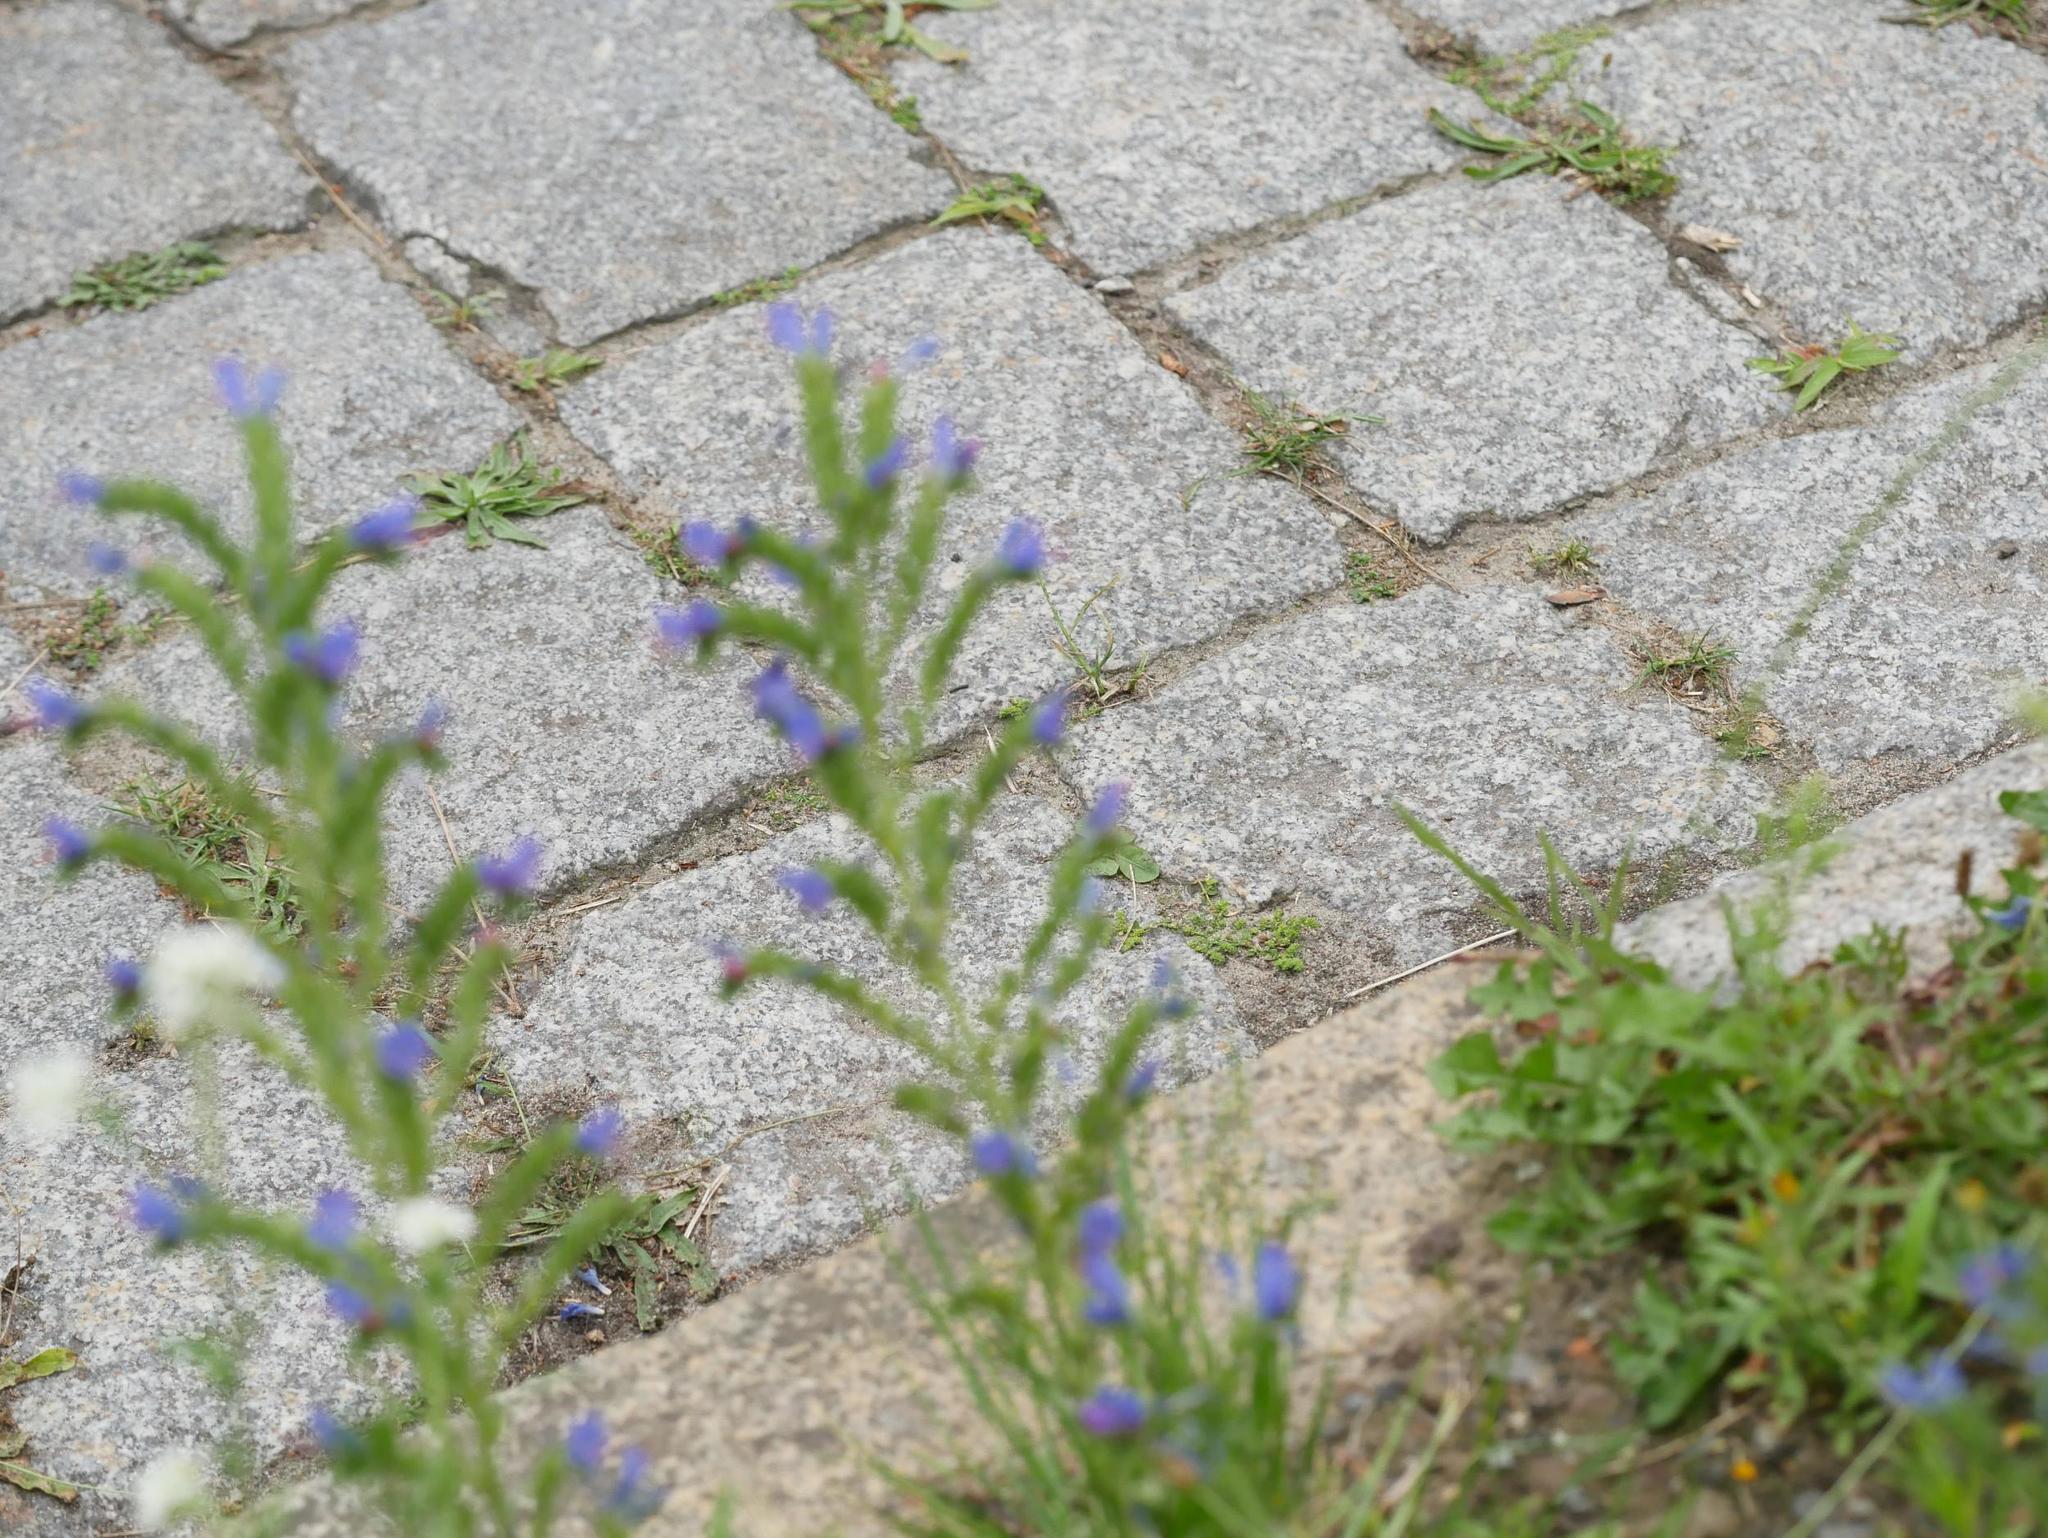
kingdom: Plantae
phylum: Tracheophyta
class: Magnoliopsida
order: Boraginales
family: Boraginaceae
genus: Echium
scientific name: Echium vulgare
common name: Common viper's bugloss
